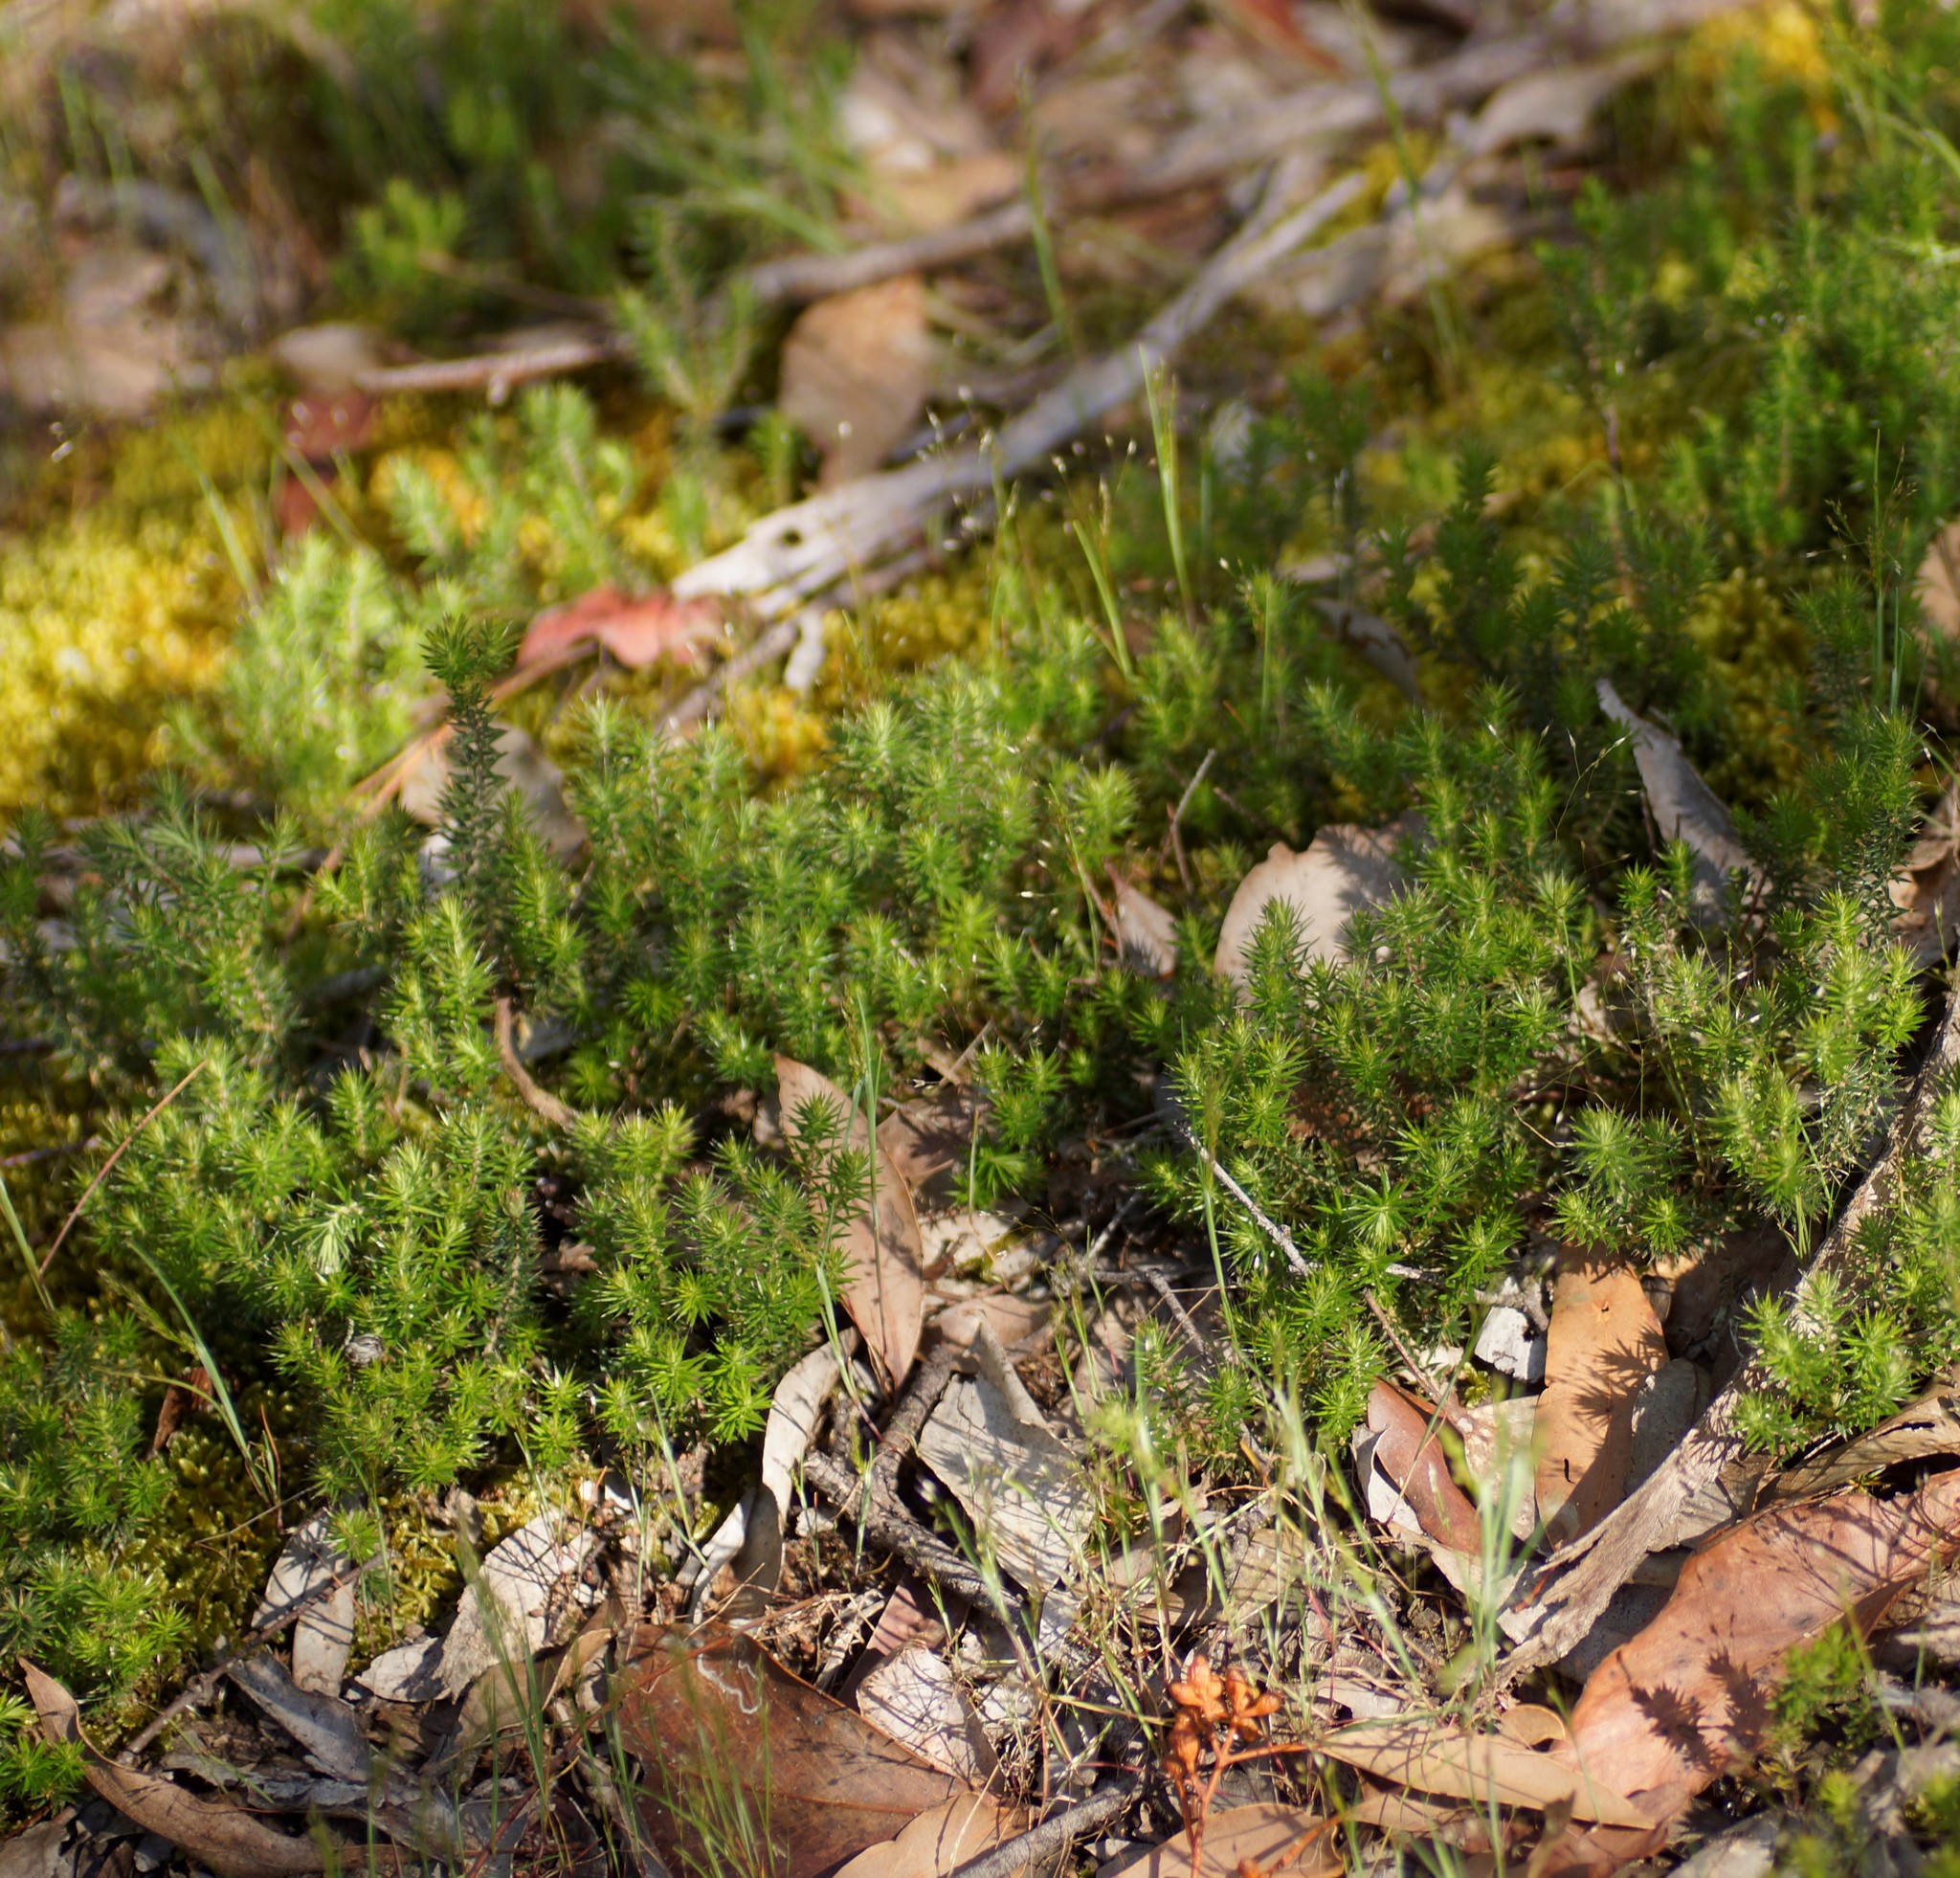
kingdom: Plantae
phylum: Tracheophyta
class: Magnoliopsida
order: Ericales
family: Ericaceae
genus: Acrotriche
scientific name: Acrotriche serrulata
